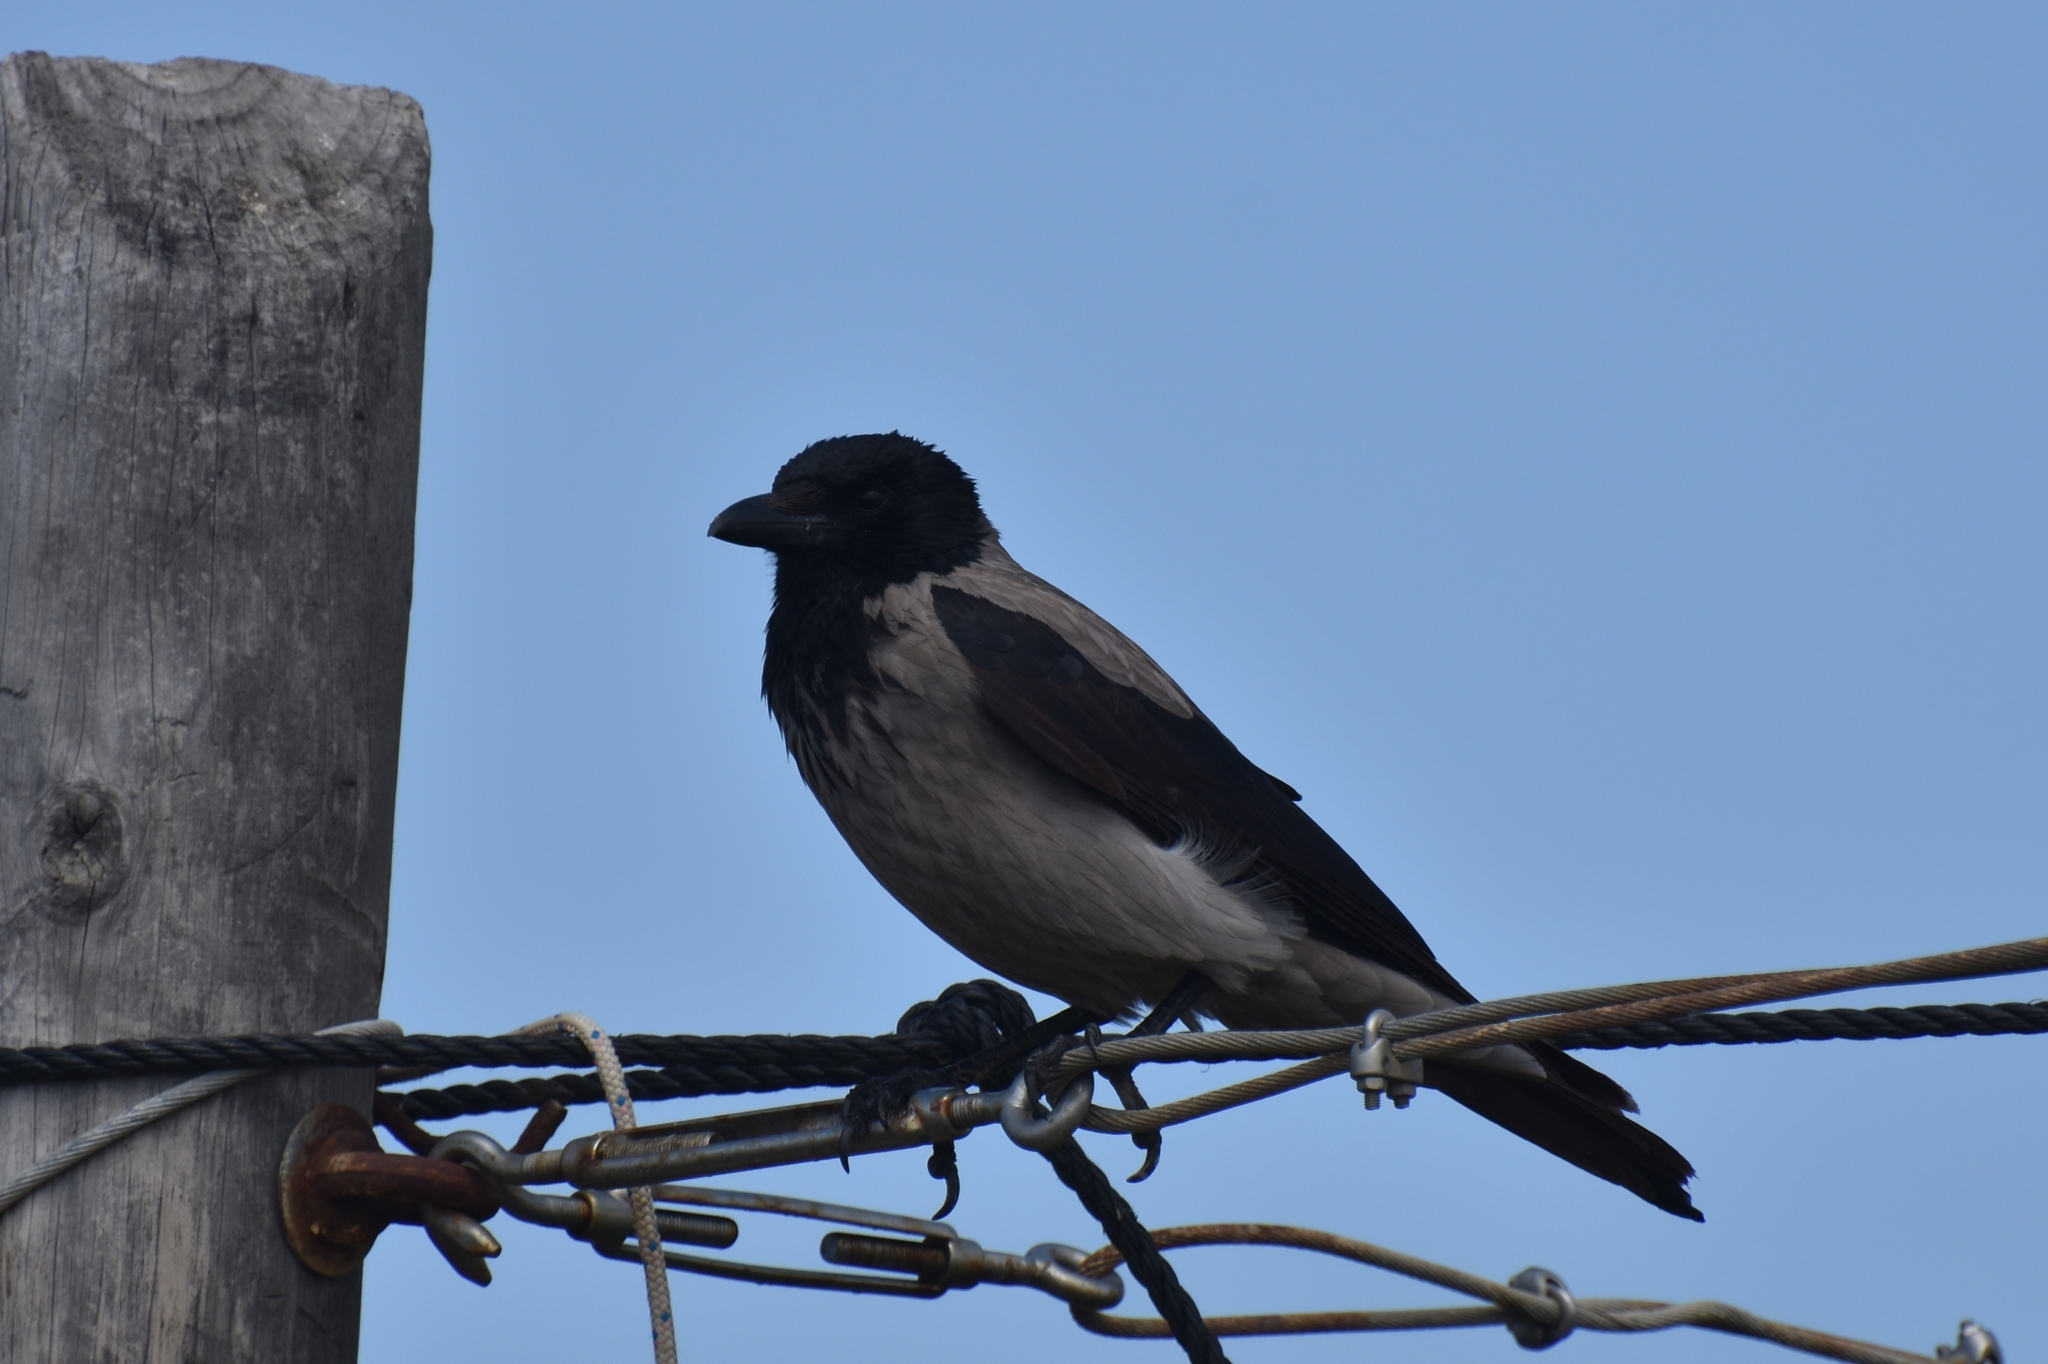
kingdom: Animalia
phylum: Chordata
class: Aves
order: Passeriformes
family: Corvidae
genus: Corvus
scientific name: Corvus cornix
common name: Hooded crow
